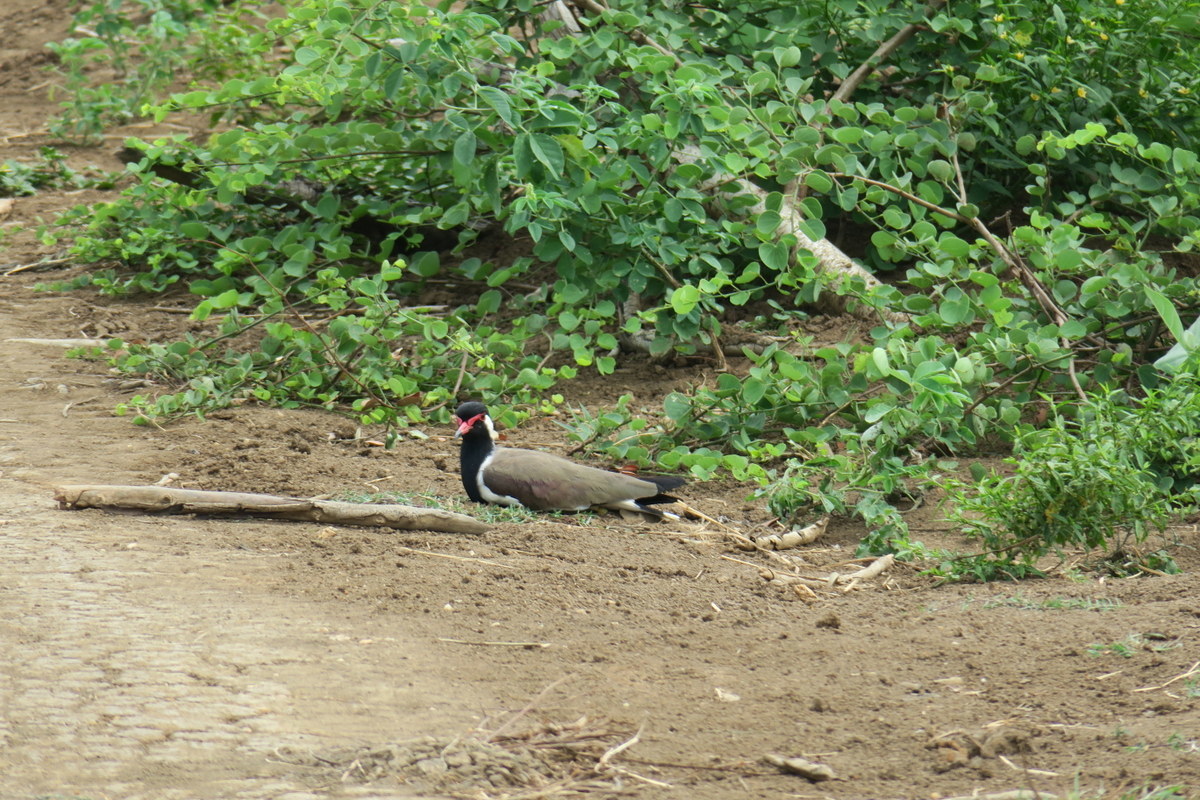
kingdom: Animalia
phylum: Chordata
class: Aves
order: Charadriiformes
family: Charadriidae
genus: Vanellus
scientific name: Vanellus indicus
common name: Red-wattled lapwing
